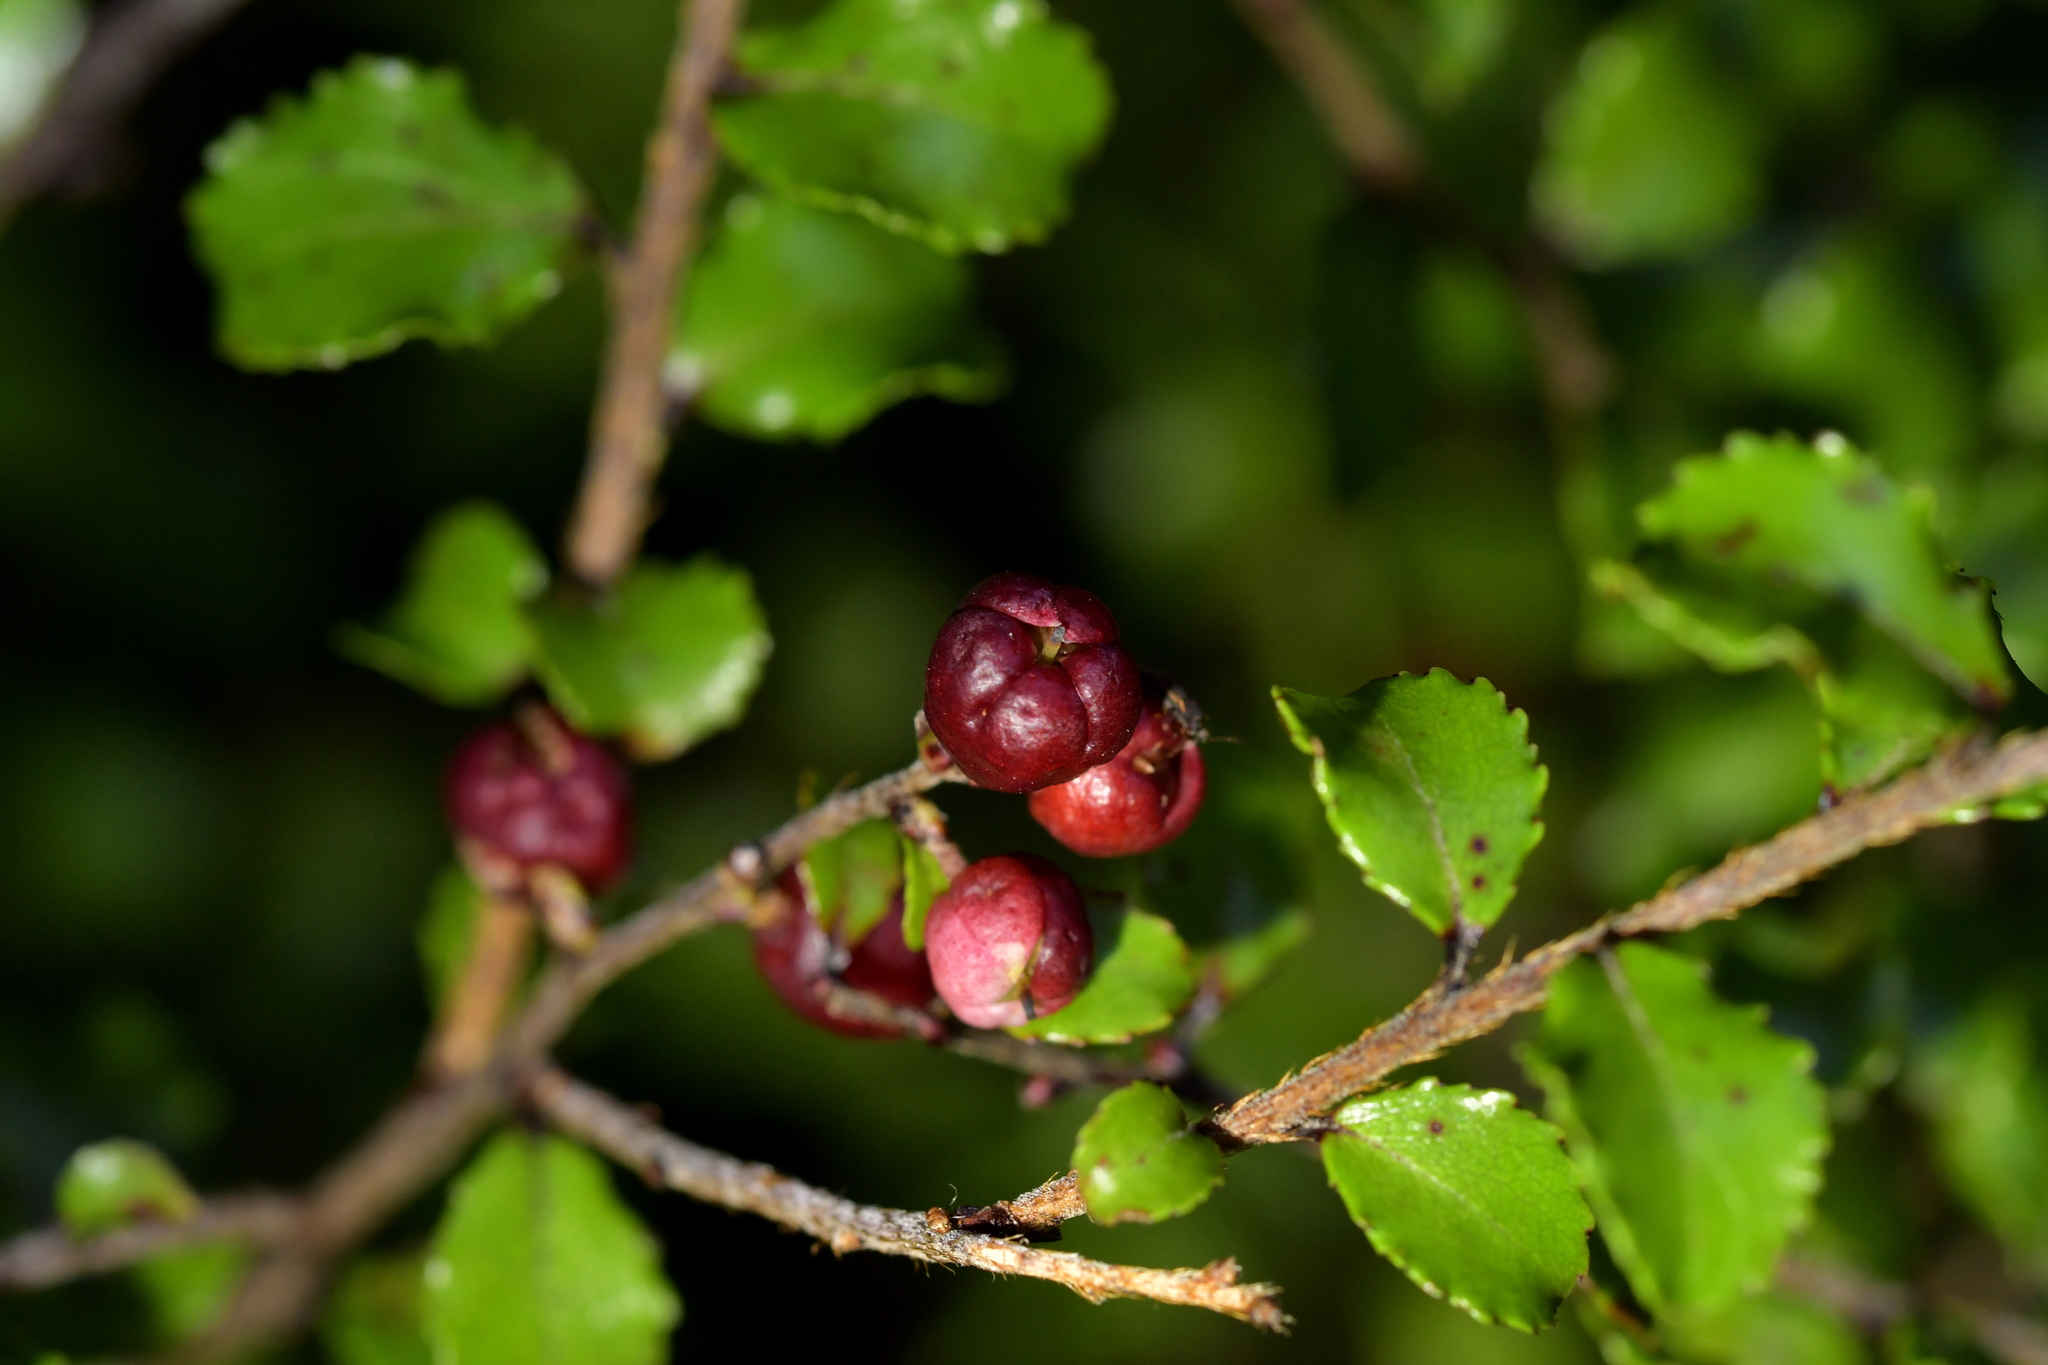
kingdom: Plantae
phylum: Tracheophyta
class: Magnoliopsida
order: Ericales
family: Ericaceae
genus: Gaultheria
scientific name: Gaultheria antipoda
